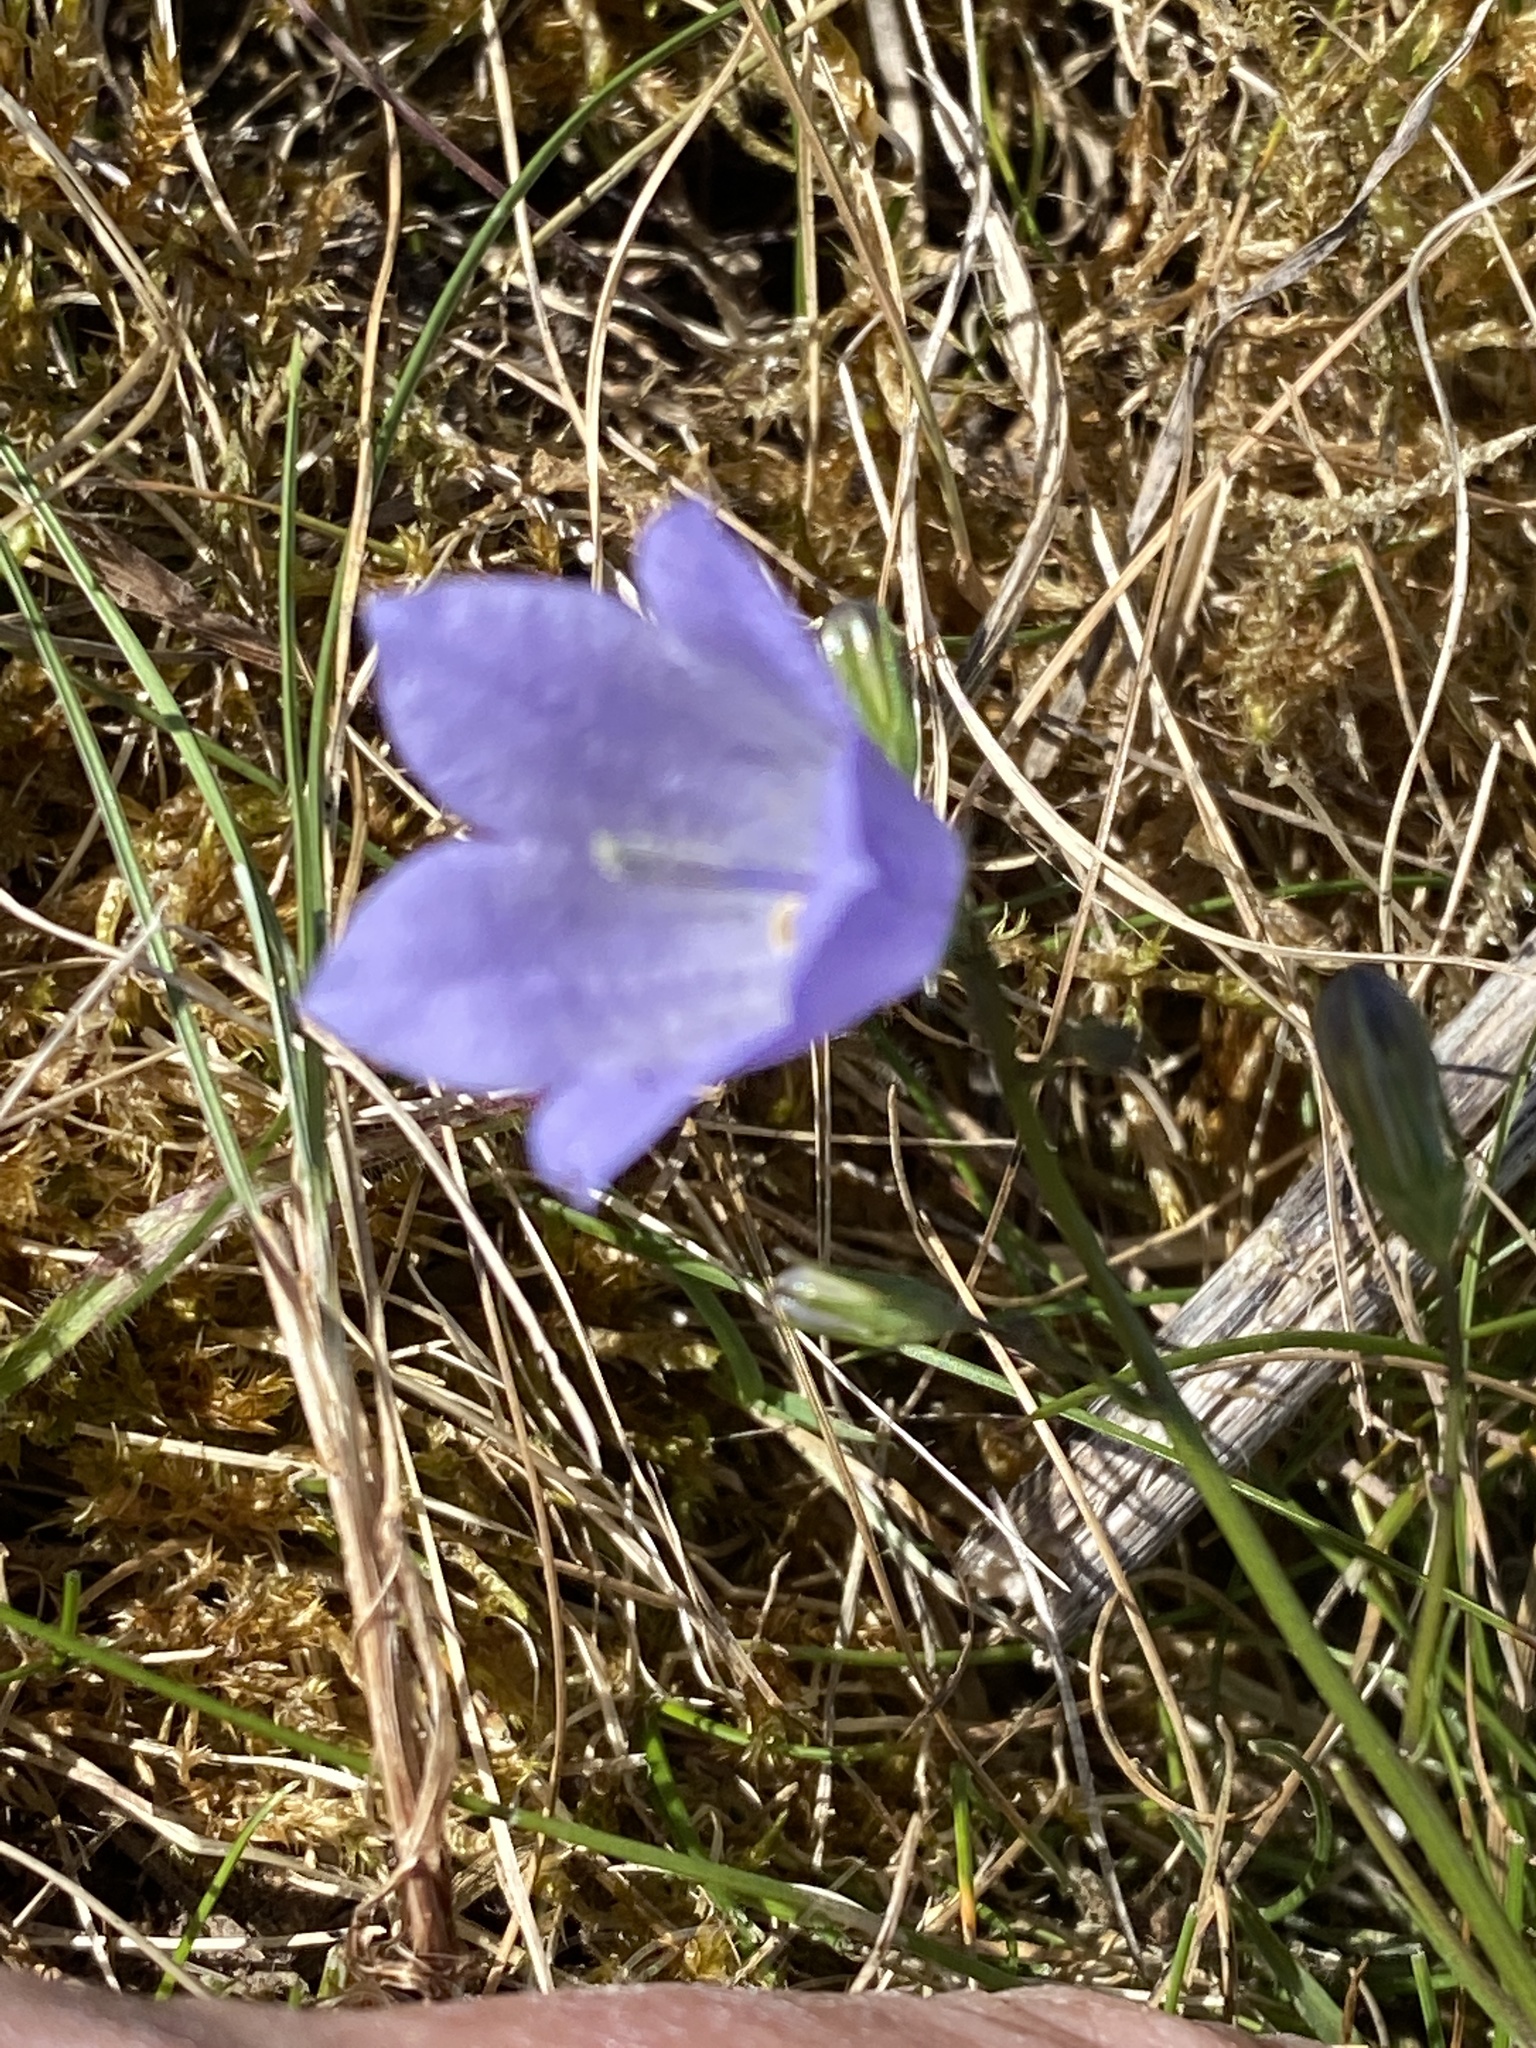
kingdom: Plantae
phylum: Tracheophyta
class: Magnoliopsida
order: Asterales
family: Campanulaceae
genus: Campanula
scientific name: Campanula rotundifolia
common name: Harebell
